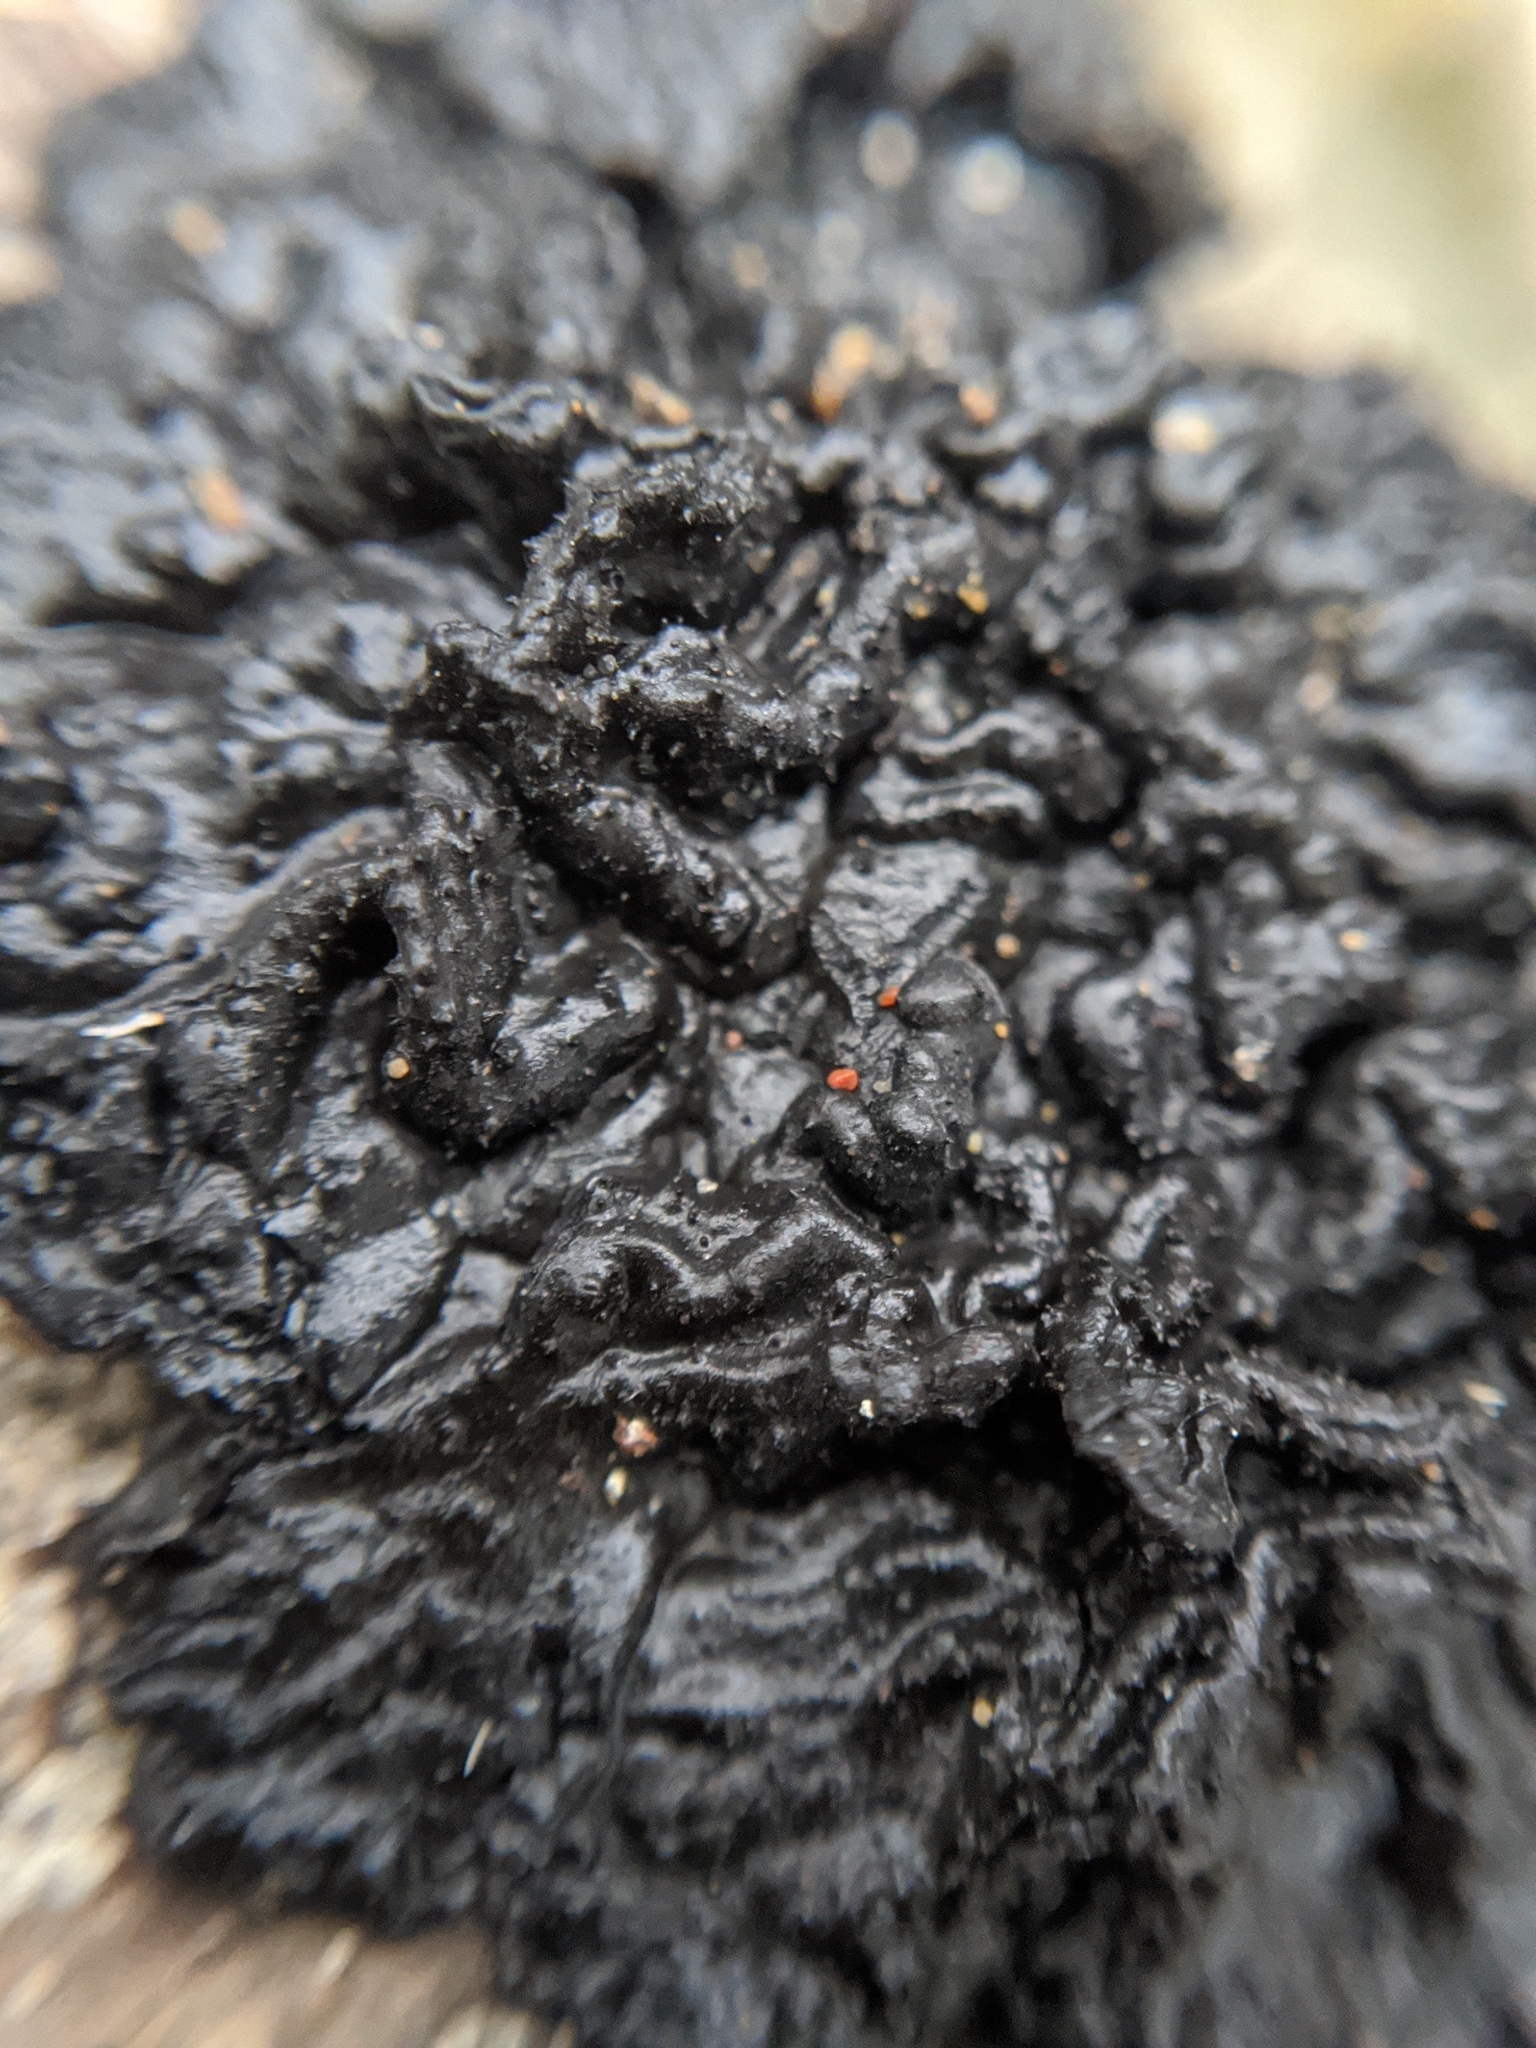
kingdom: Fungi
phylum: Basidiomycota
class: Agaricomycetes
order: Auriculariales
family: Auriculariaceae
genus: Exidia
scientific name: Exidia glandulosa
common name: Witches' butter
